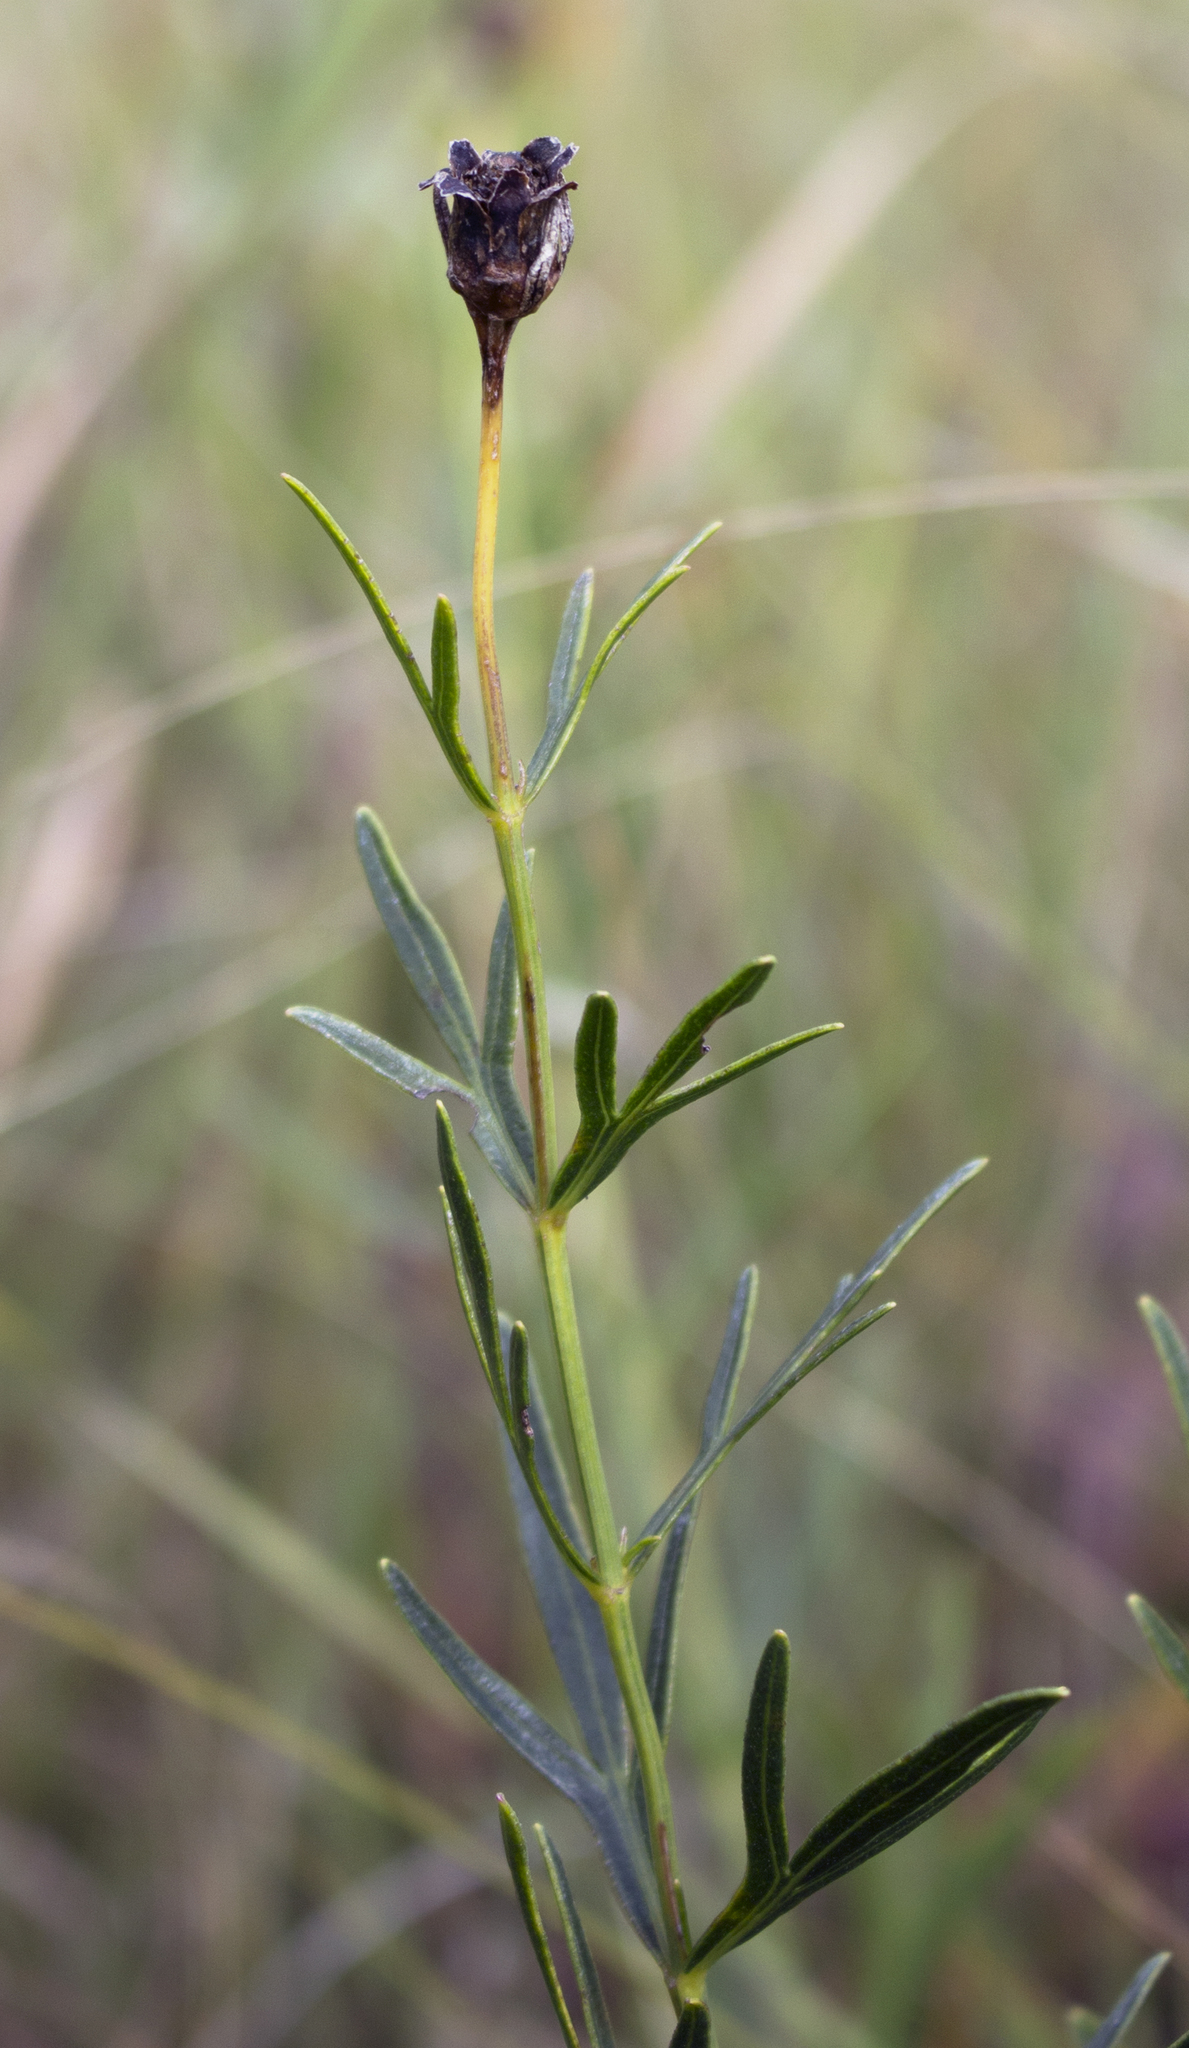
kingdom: Plantae
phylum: Tracheophyta
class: Magnoliopsida
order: Asterales
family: Asteraceae
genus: Coreopsis
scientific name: Coreopsis palmata
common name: Prairie coreopsis
